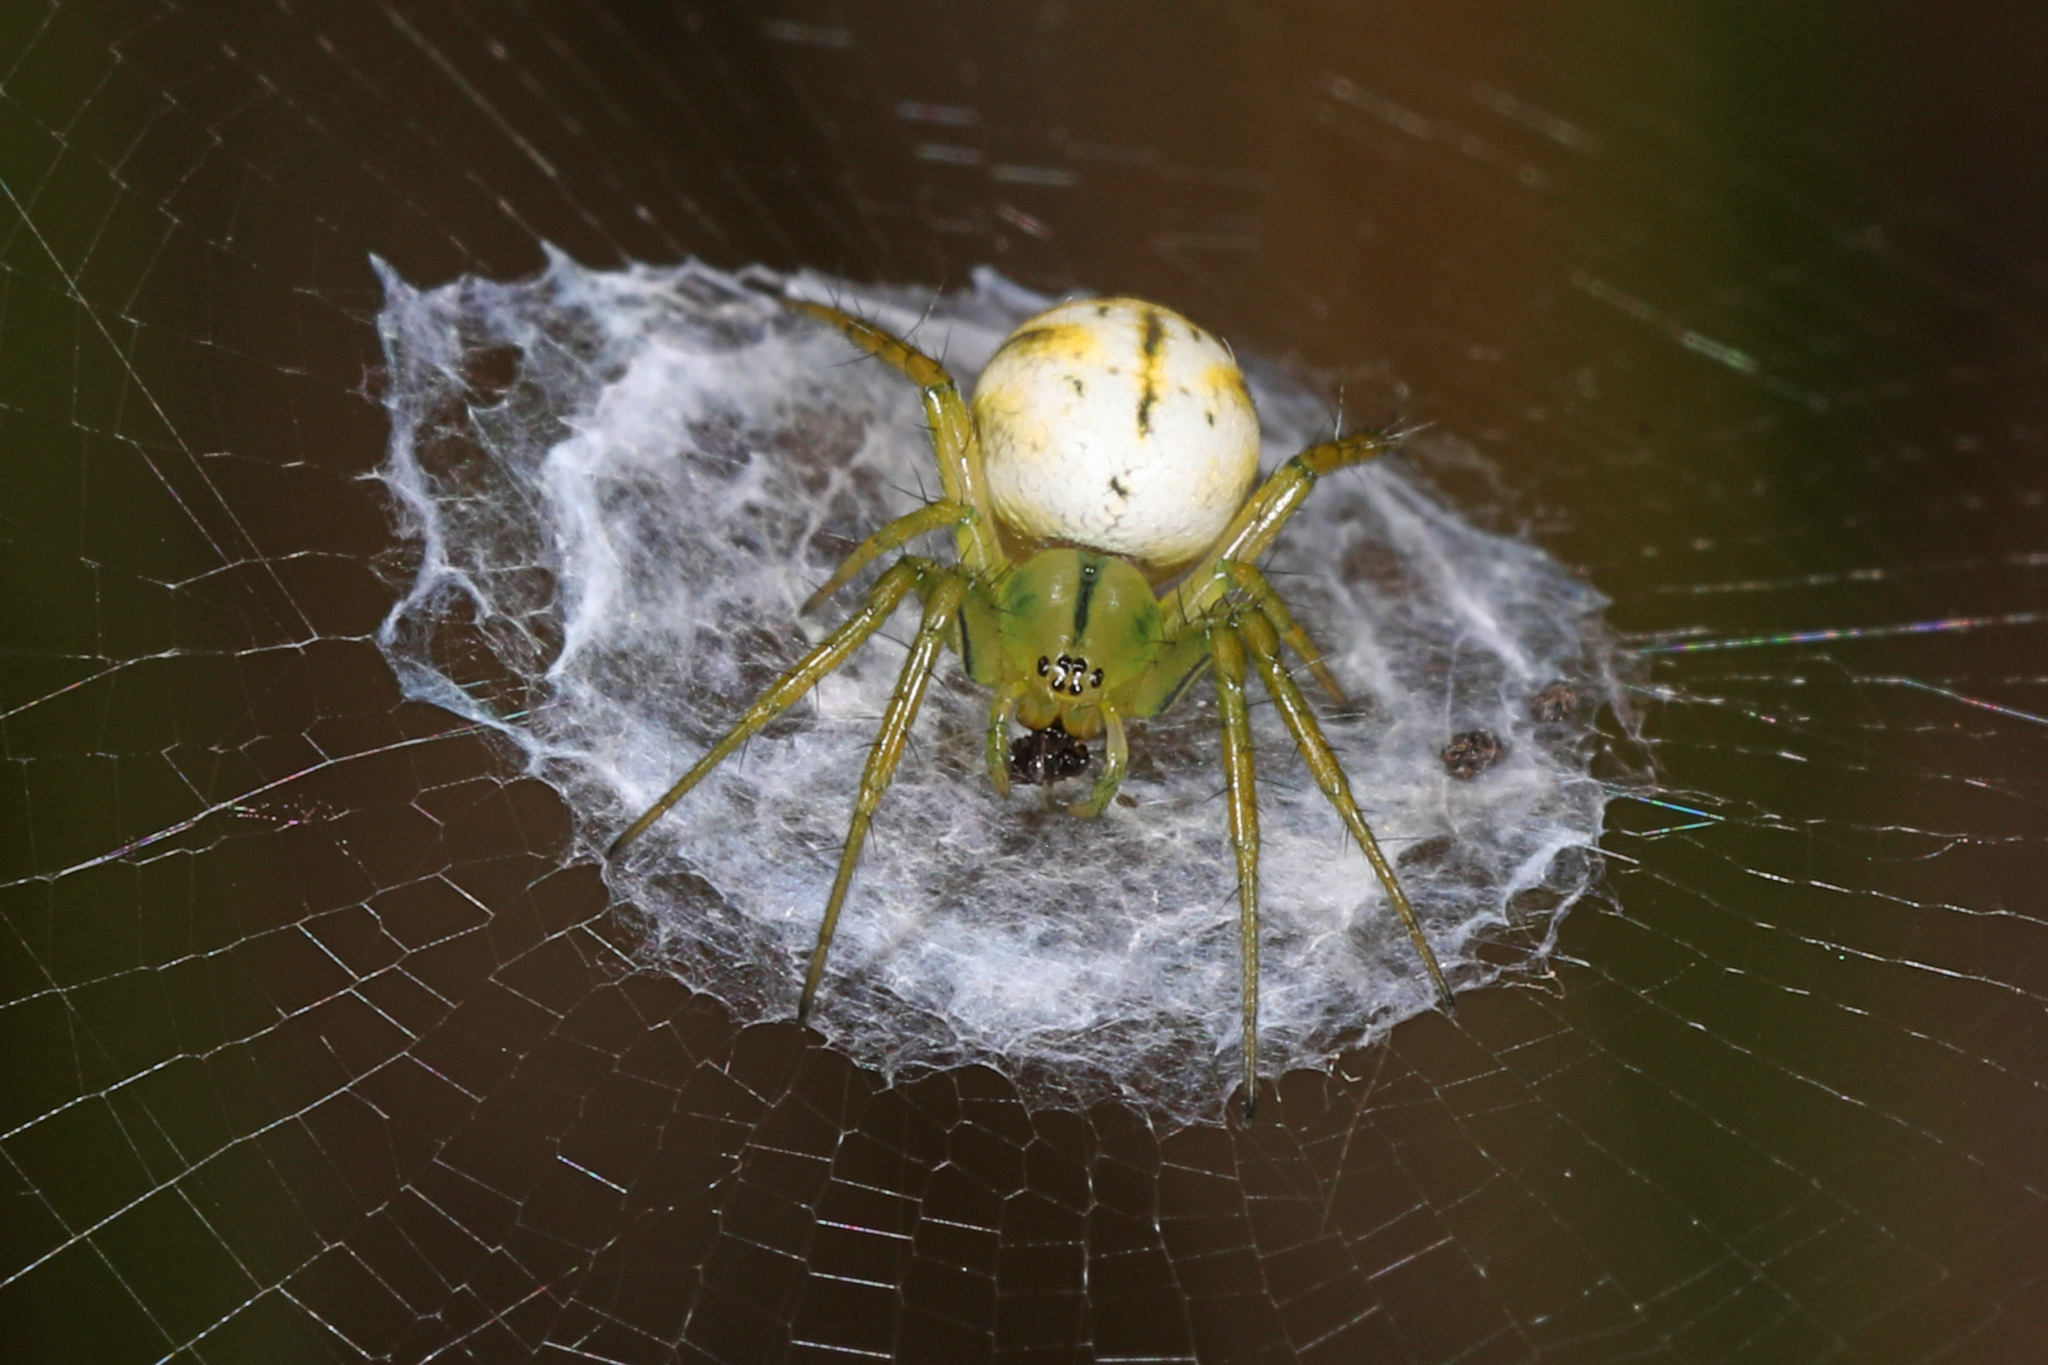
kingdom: Animalia
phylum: Arthropoda
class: Arachnida
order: Araneae
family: Araneidae
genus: Mangora
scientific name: Mangora gibberosa
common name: Lined orbweaver
